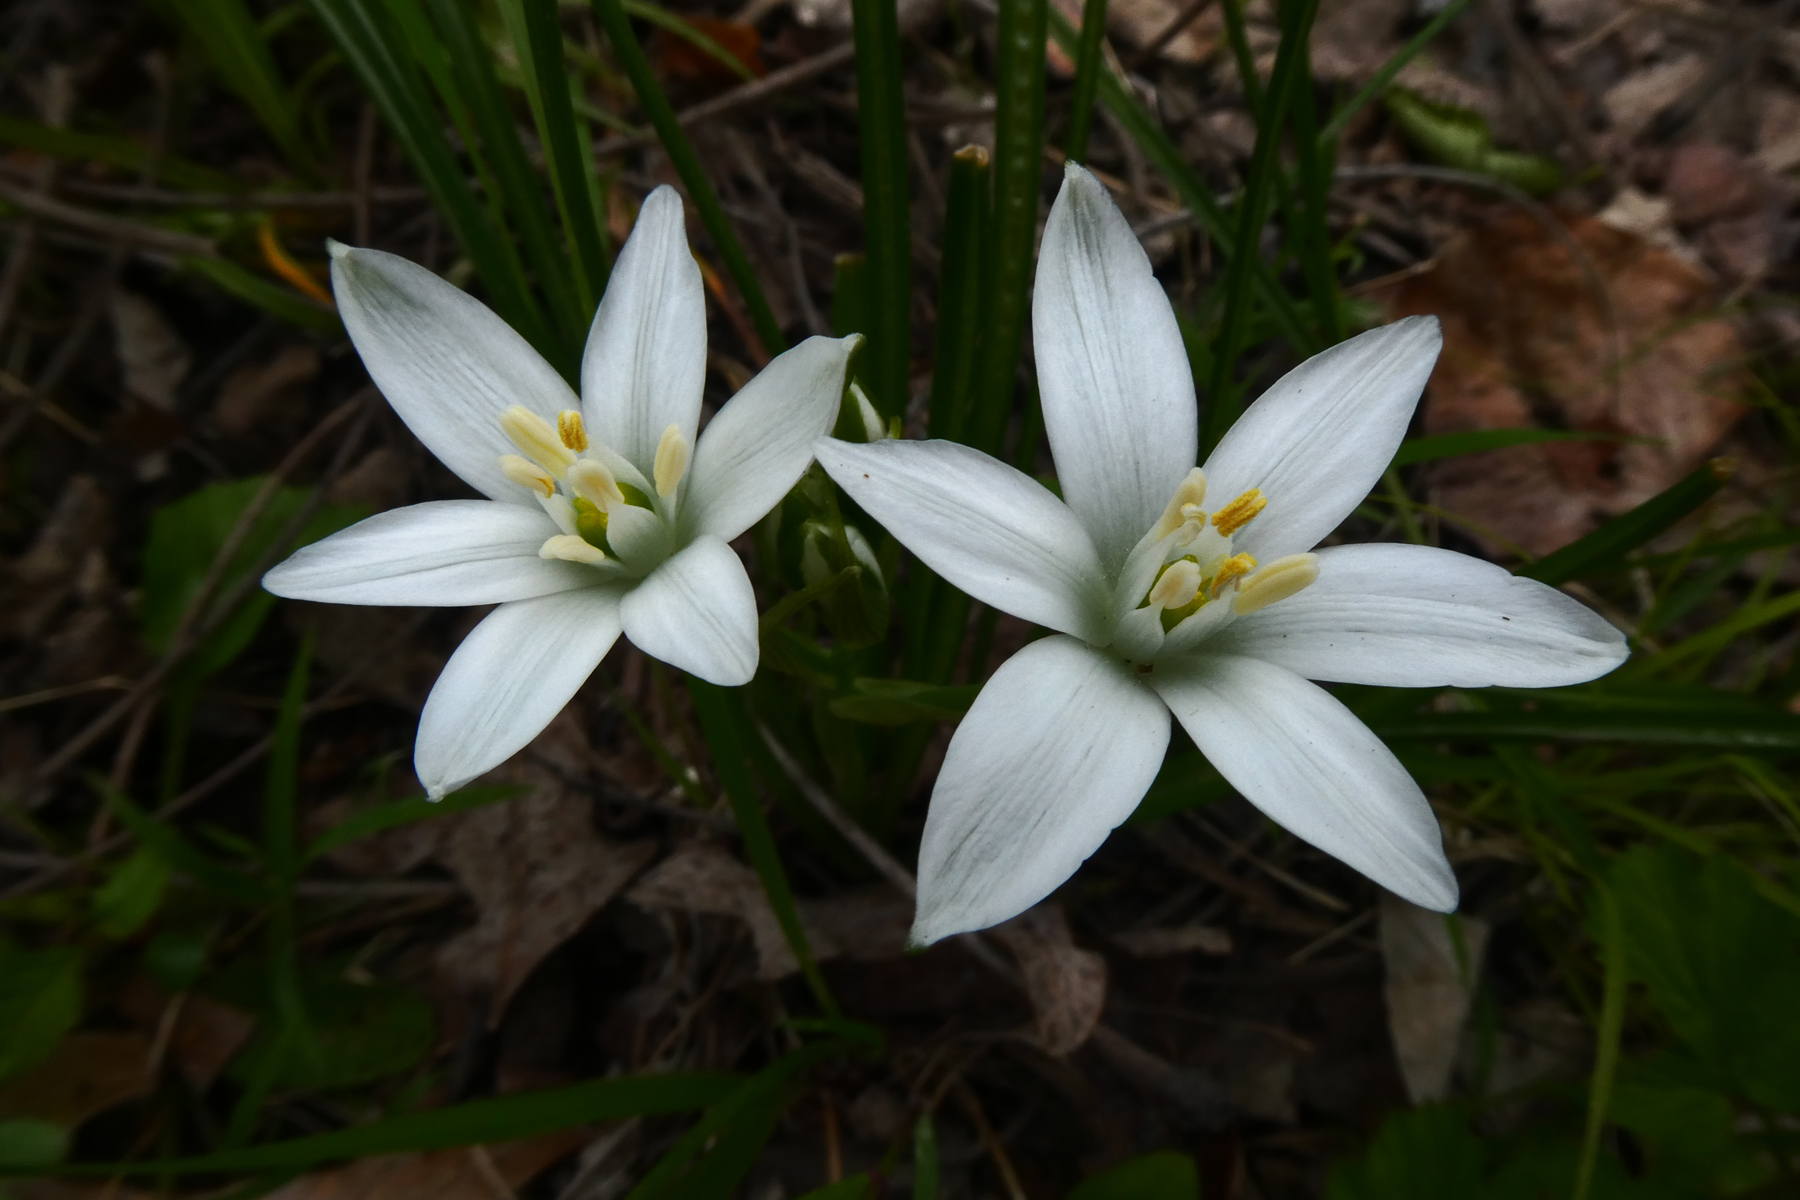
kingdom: Plantae
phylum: Tracheophyta
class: Liliopsida
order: Asparagales
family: Asparagaceae
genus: Ornithogalum
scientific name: Ornithogalum umbellatum
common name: Garden star-of-bethlehem
